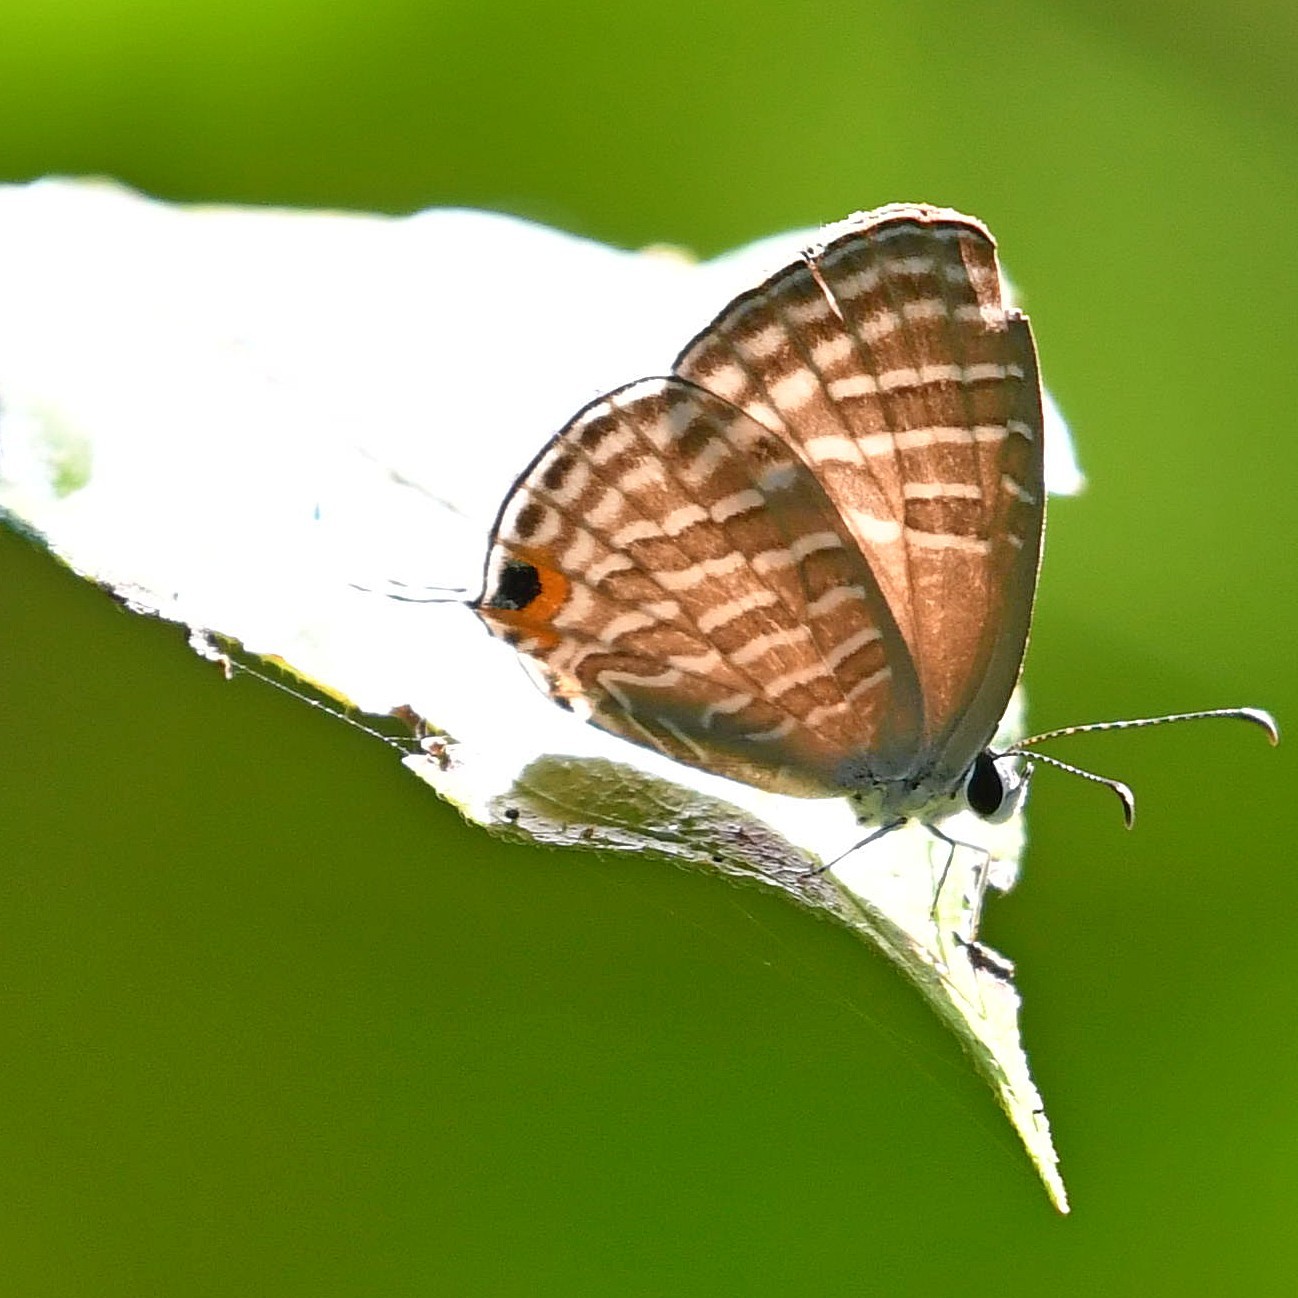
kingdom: Animalia
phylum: Arthropoda
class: Insecta
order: Lepidoptera
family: Lycaenidae
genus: Jamides
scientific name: Jamides celeno
